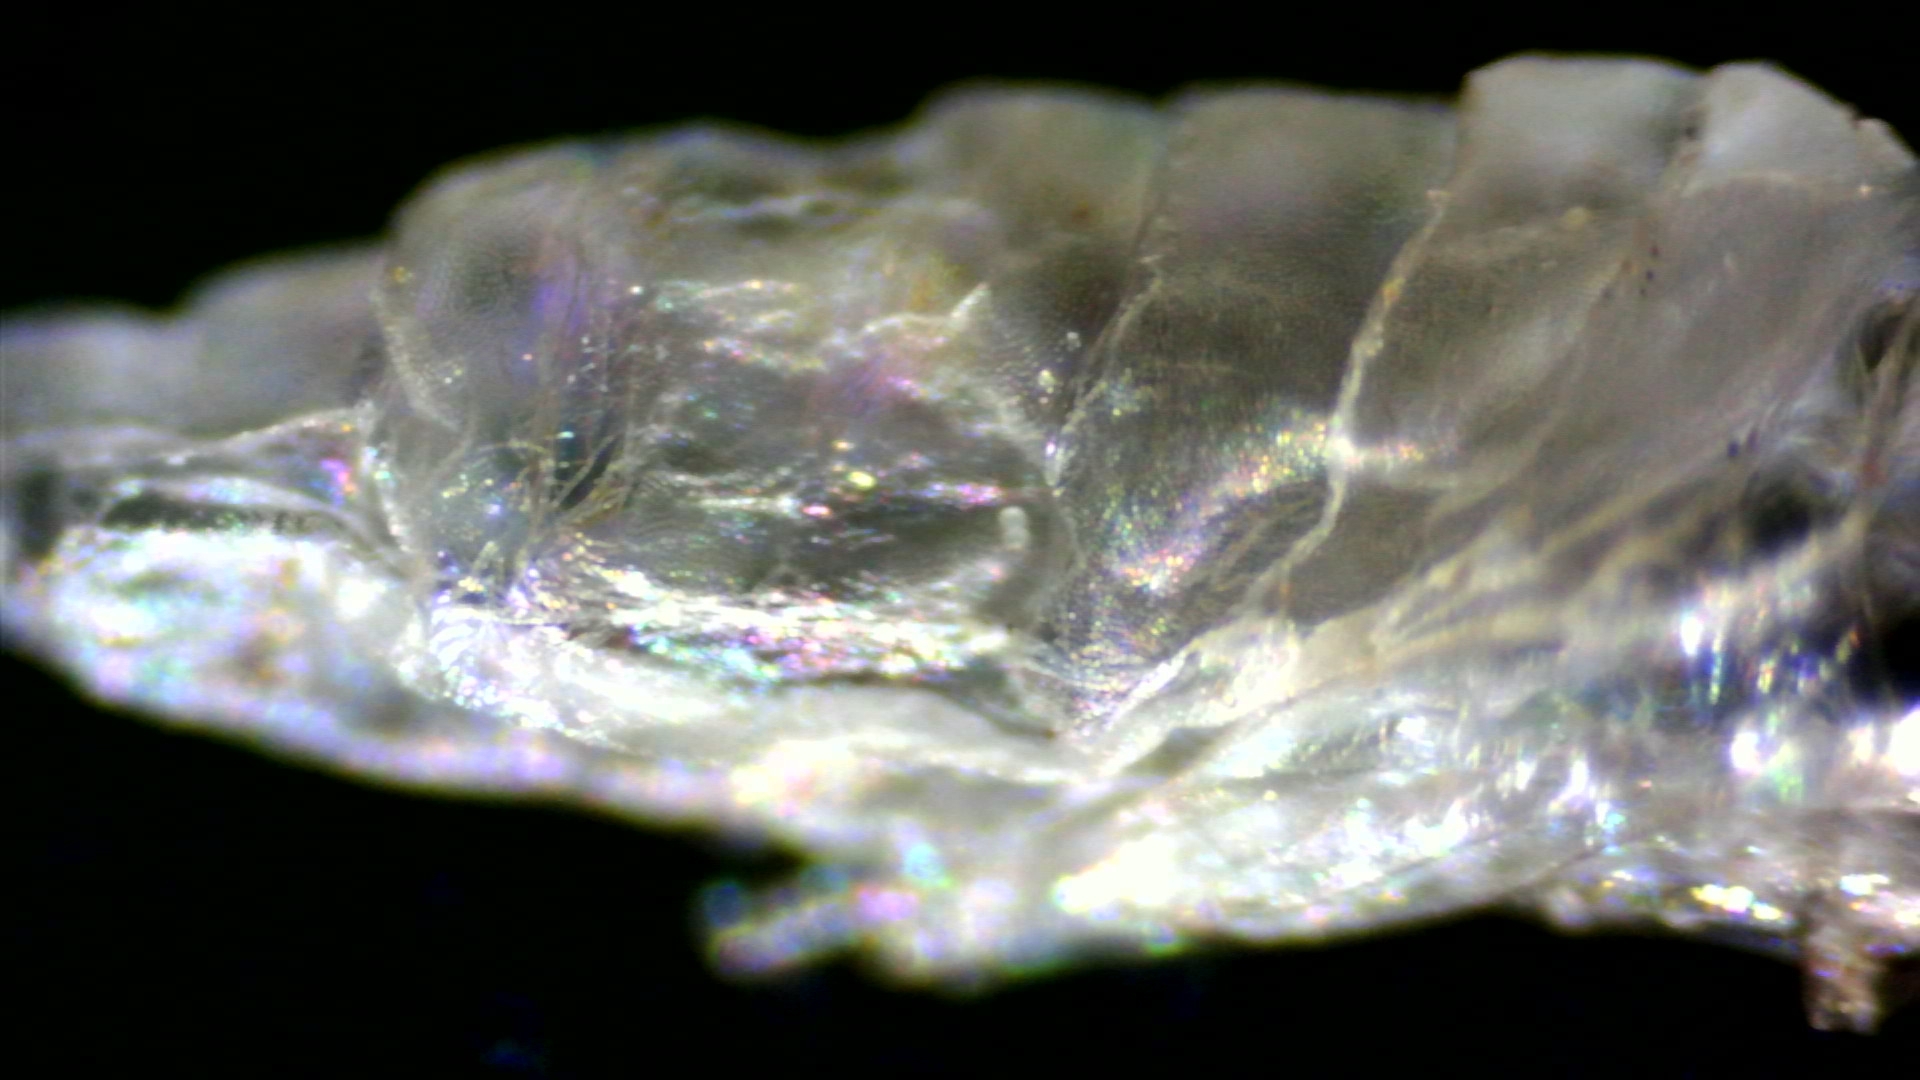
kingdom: Animalia
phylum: Arthropoda
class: Insecta
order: Diptera
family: Cecidomyiidae
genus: Dryomyia
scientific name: Dryomyia lichtensteinii
